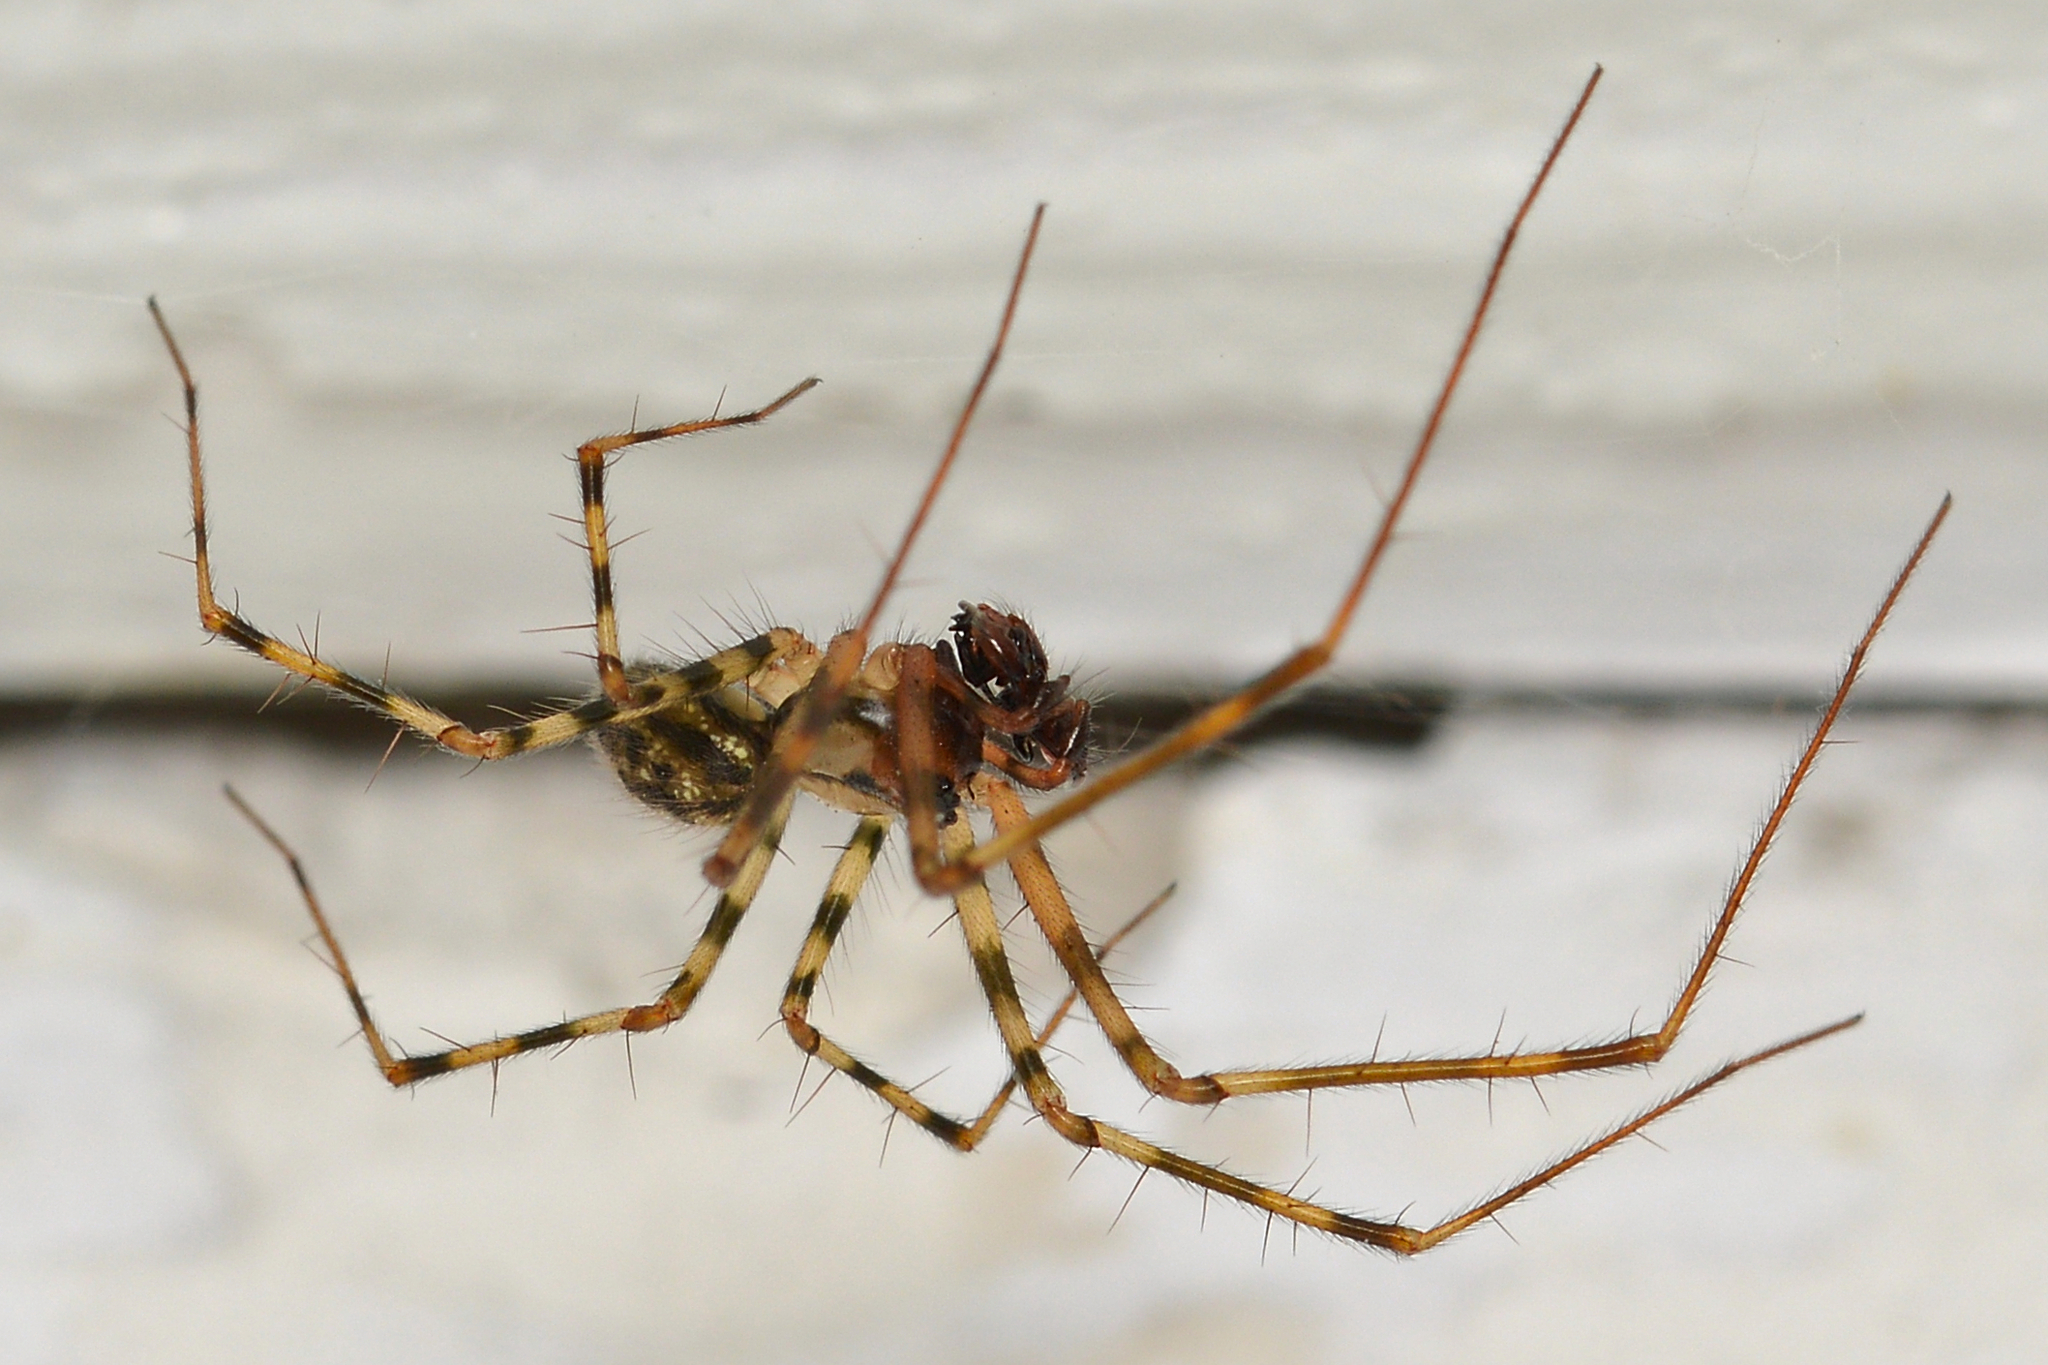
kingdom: Animalia
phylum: Arthropoda
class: Arachnida
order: Araneae
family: Linyphiidae
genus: Labulla
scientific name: Labulla thoracica
